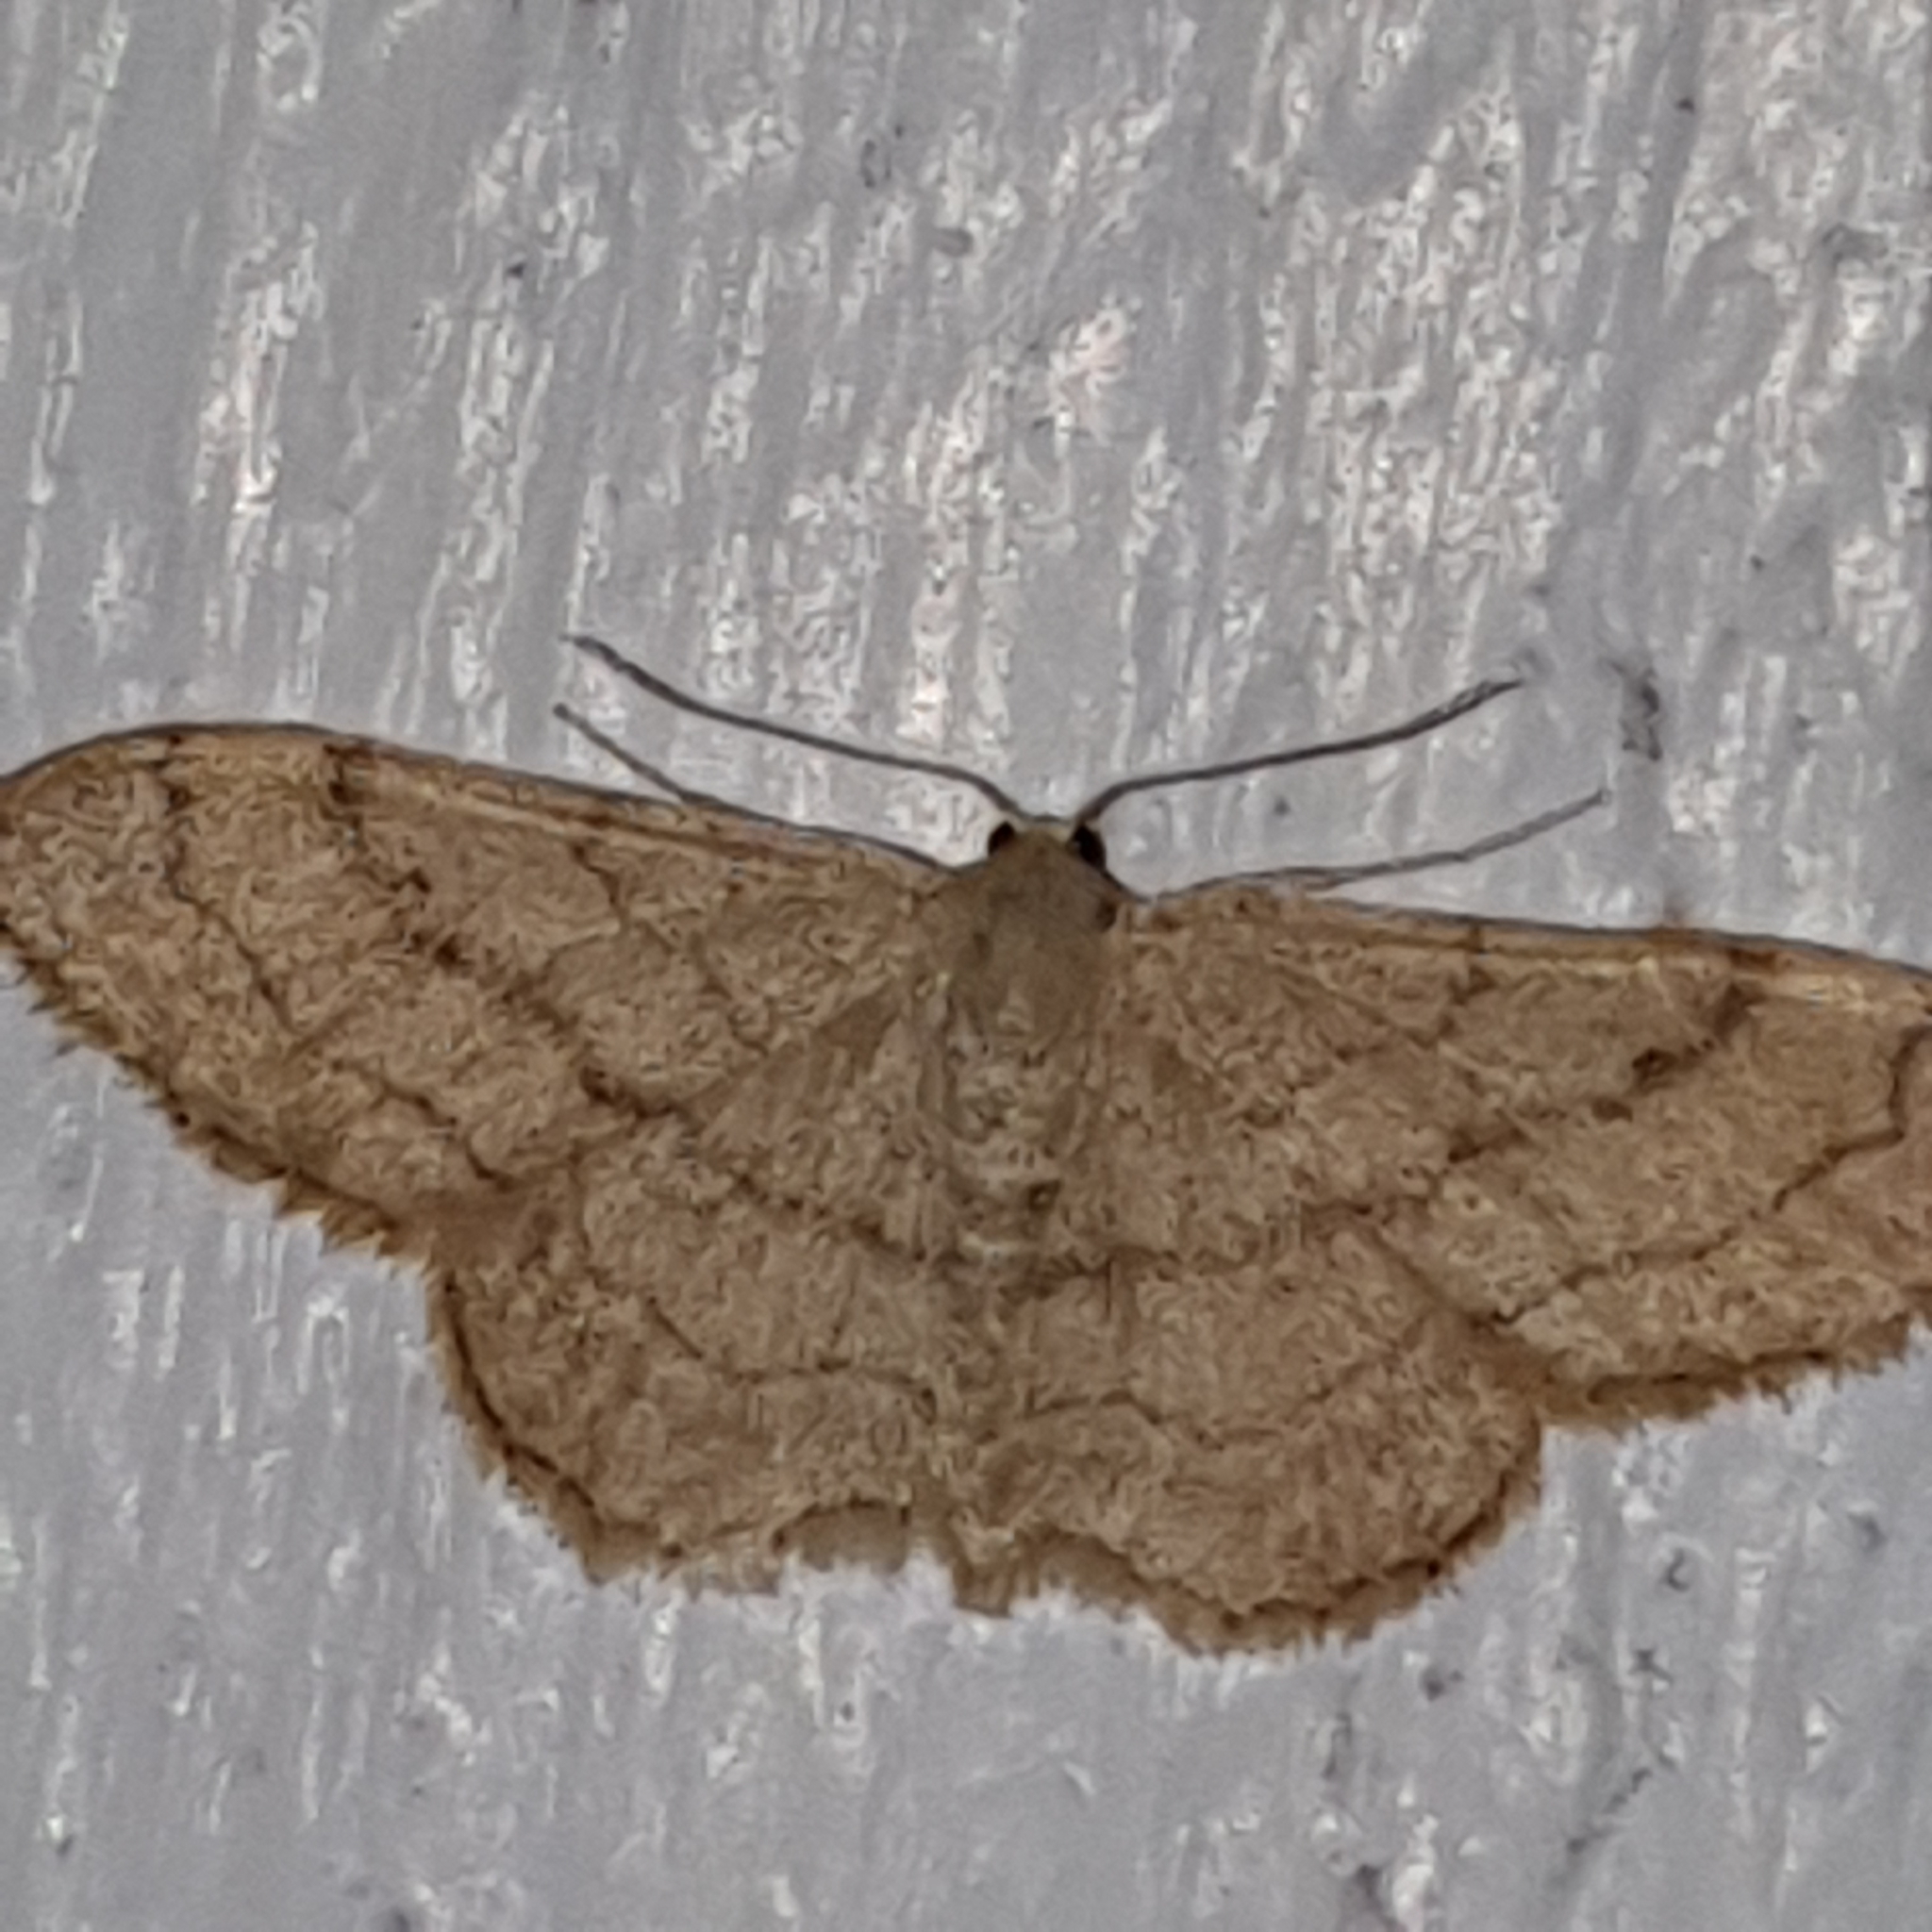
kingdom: Animalia
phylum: Arthropoda
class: Insecta
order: Lepidoptera
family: Geometridae
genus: Idaea
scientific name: Idaea aversata
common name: Riband wave
